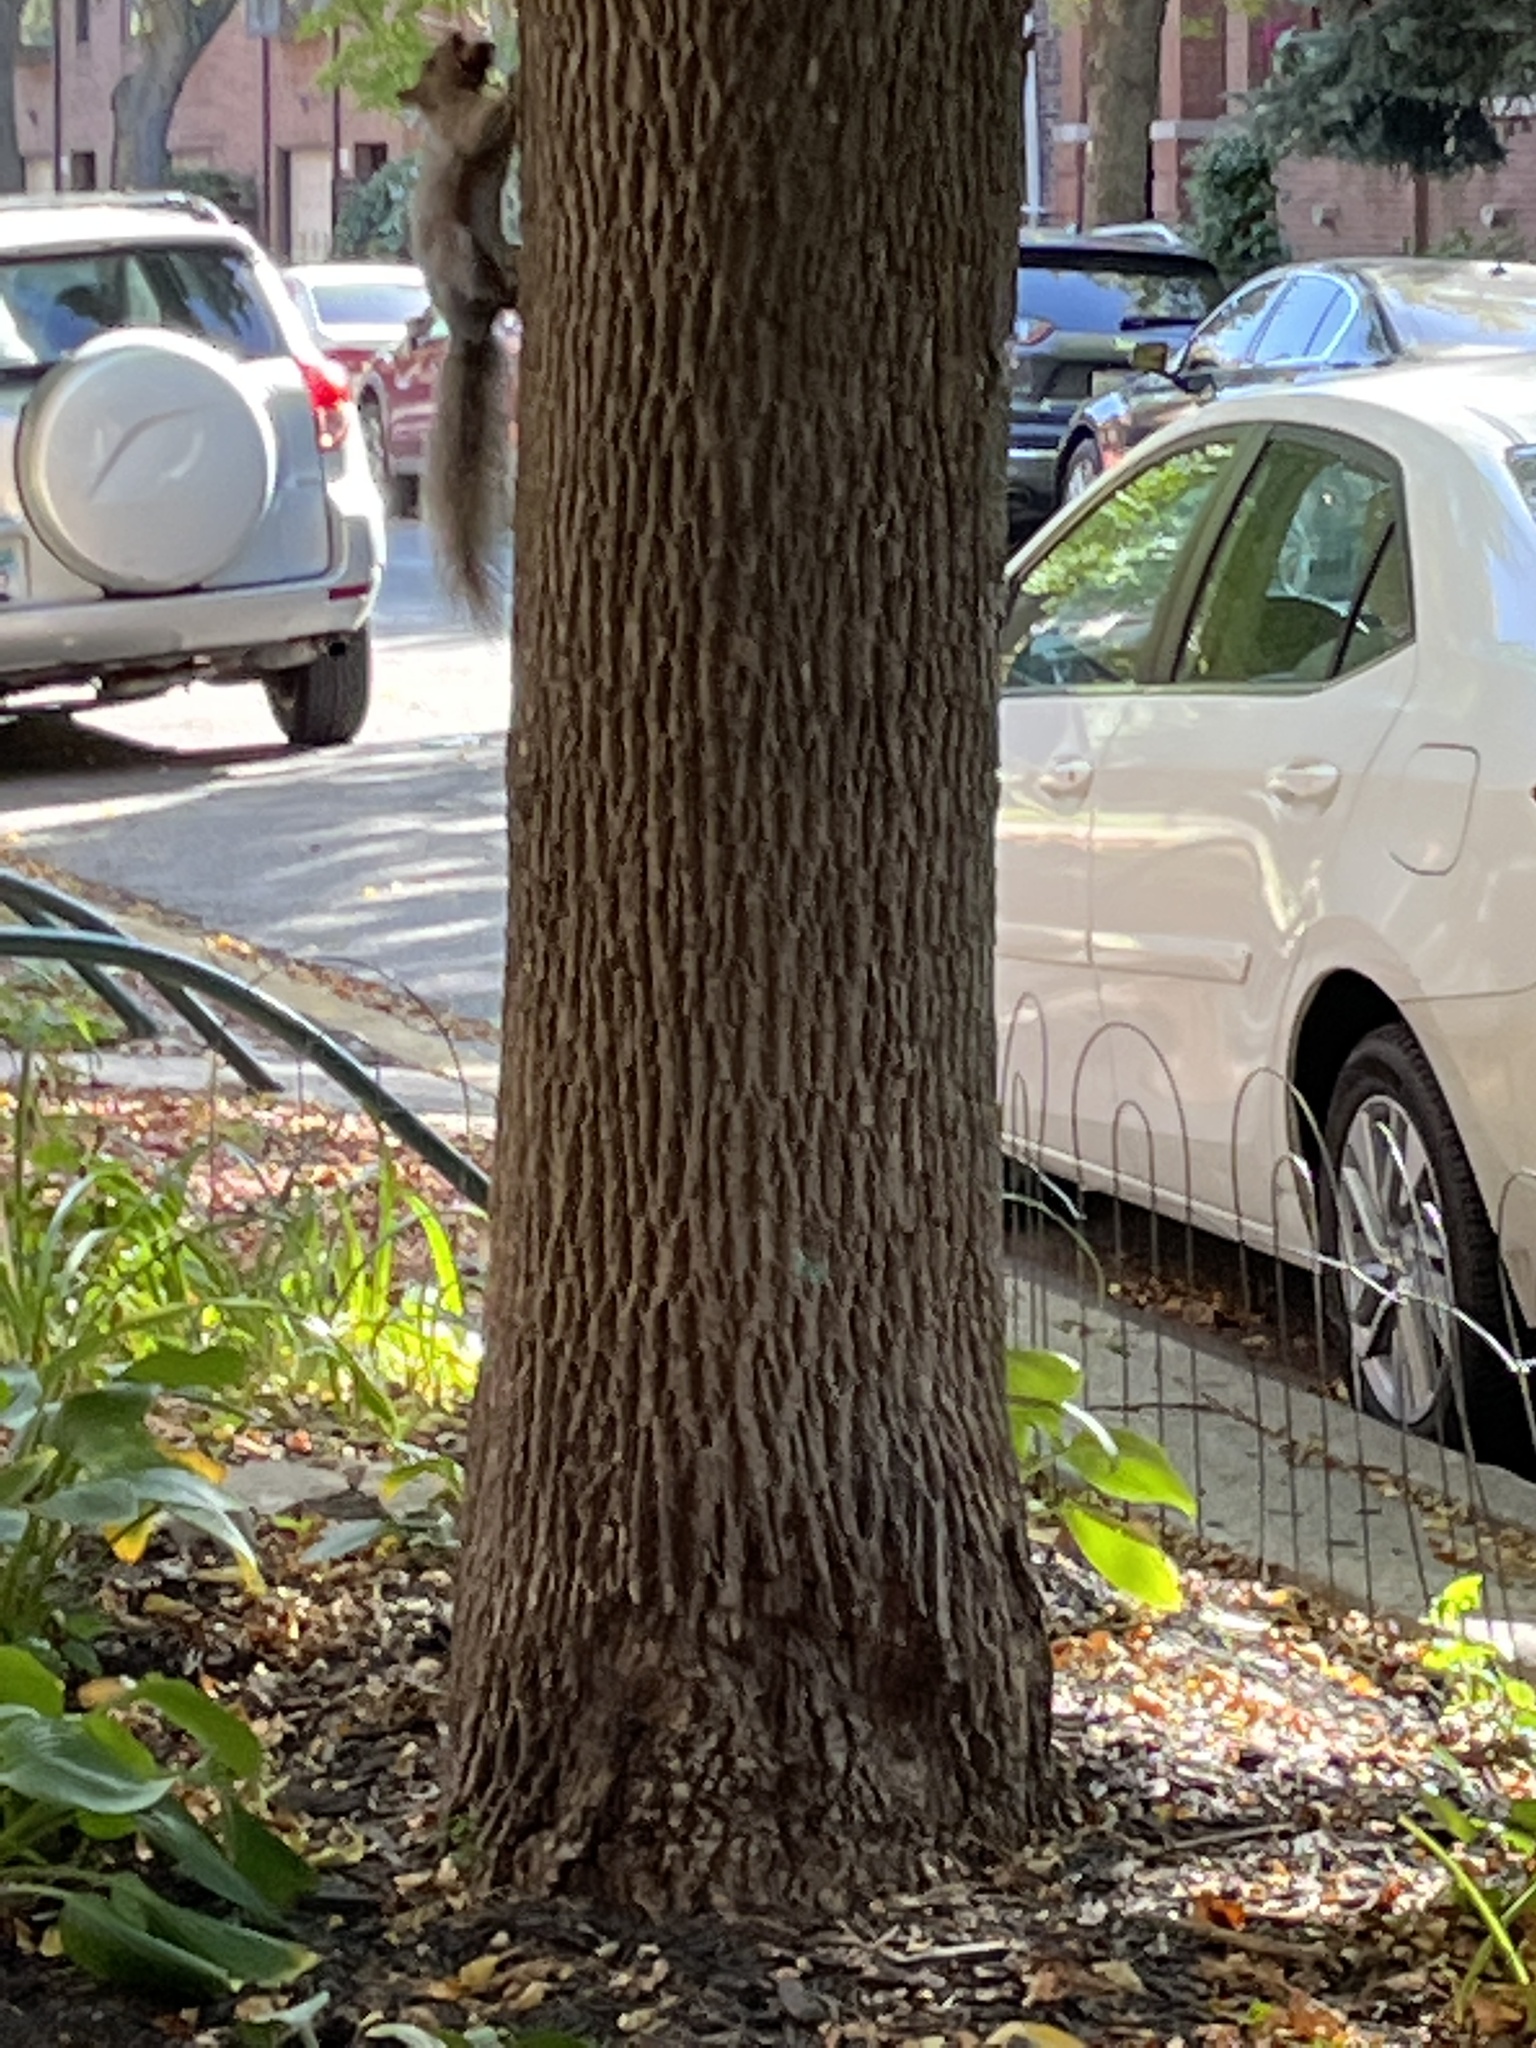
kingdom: Animalia
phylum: Chordata
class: Mammalia
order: Rodentia
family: Sciuridae
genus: Sciurus
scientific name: Sciurus carolinensis
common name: Eastern gray squirrel
